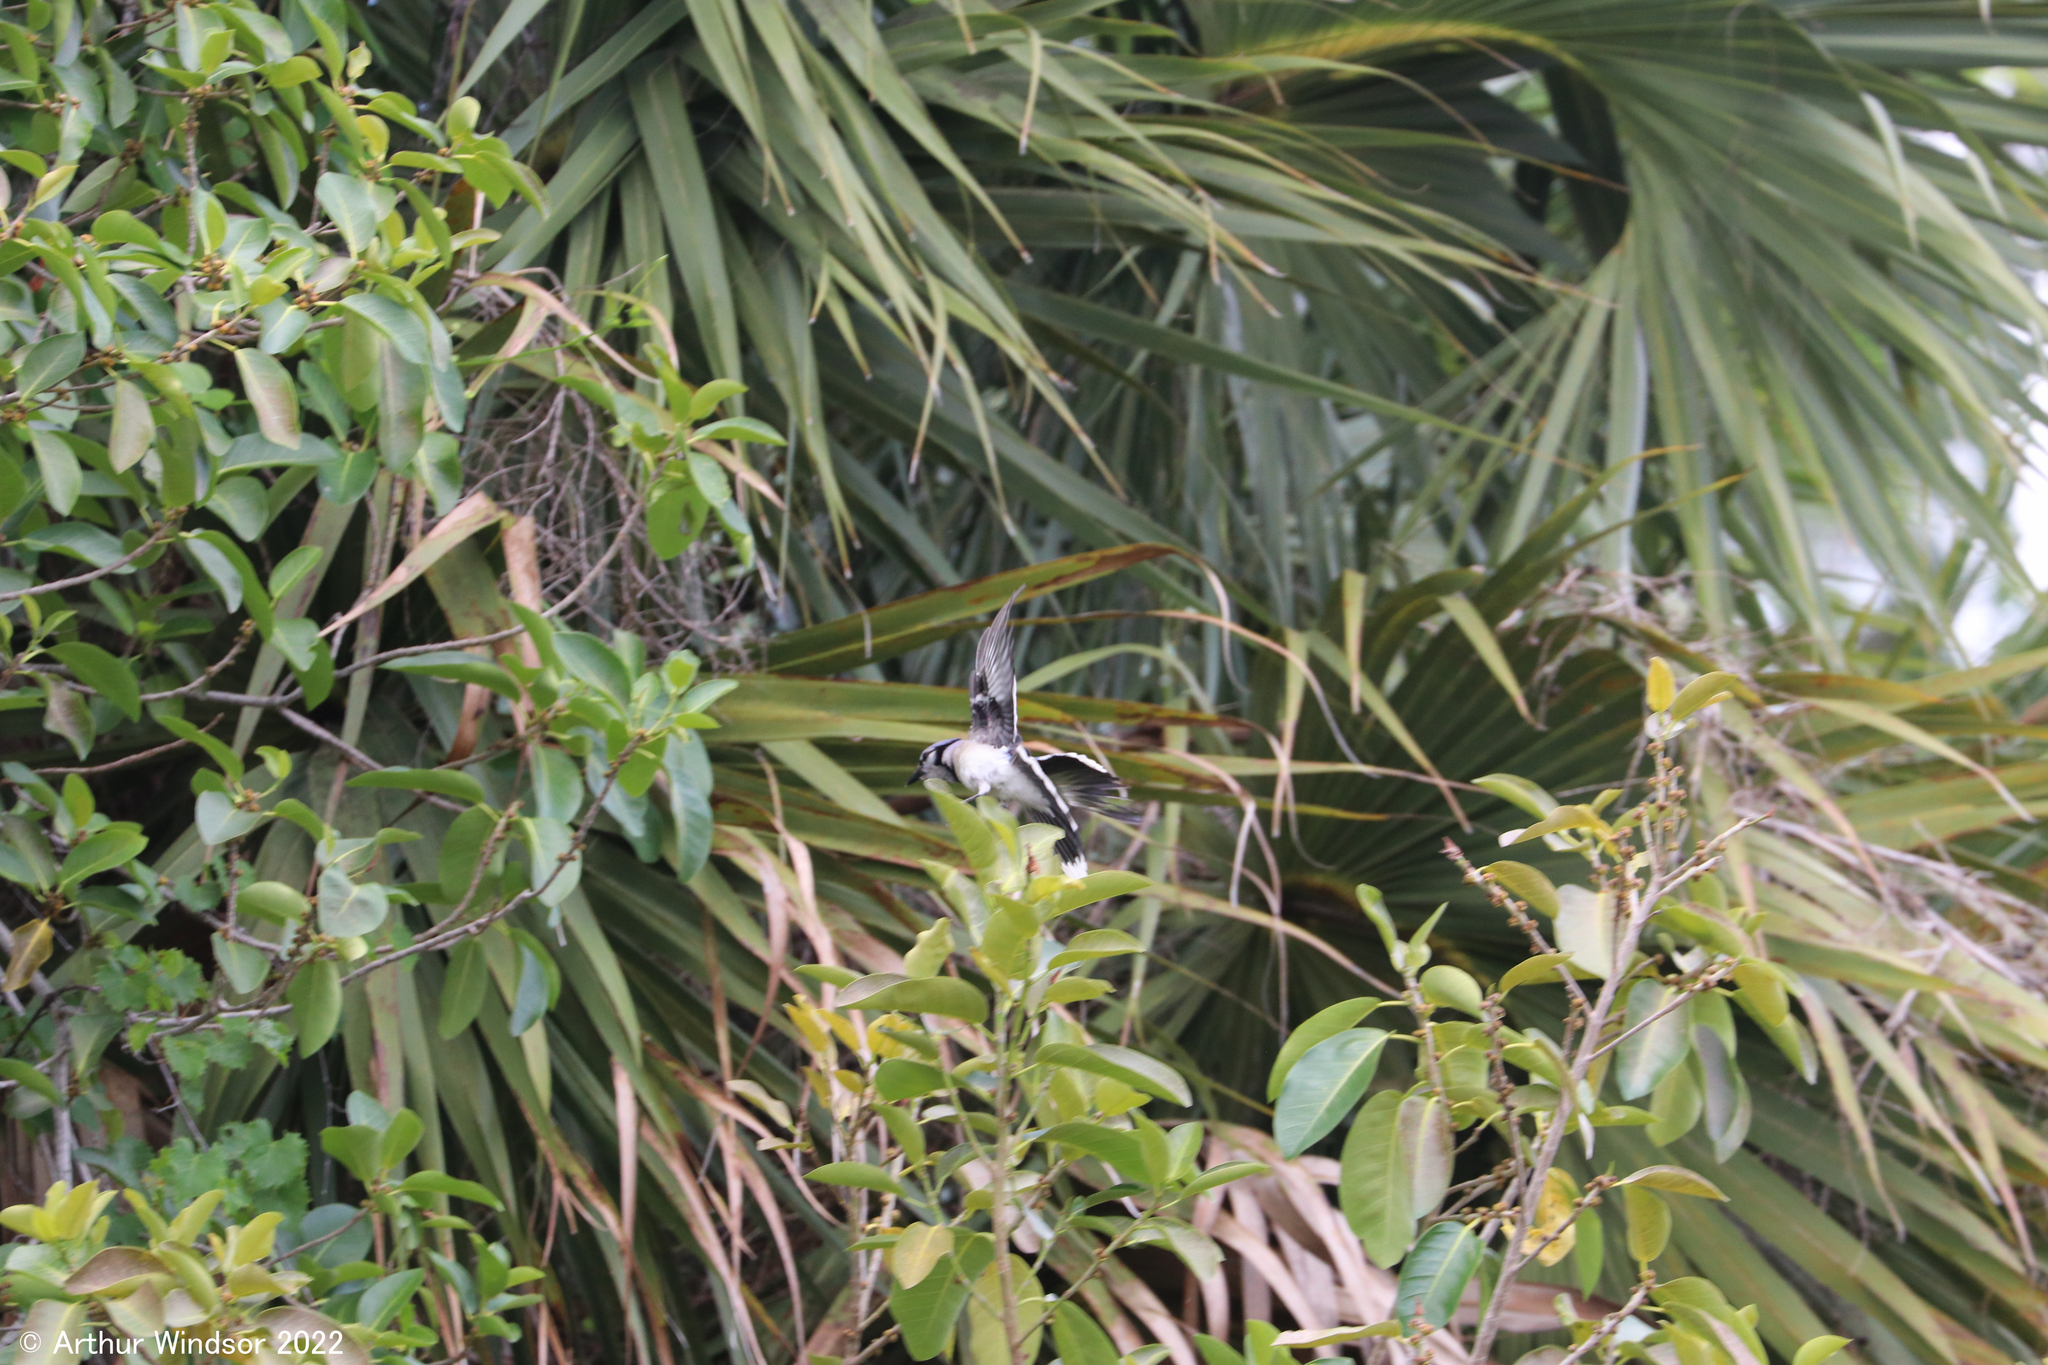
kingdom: Animalia
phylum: Chordata
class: Aves
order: Passeriformes
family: Corvidae
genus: Cyanocitta
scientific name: Cyanocitta cristata
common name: Blue jay
